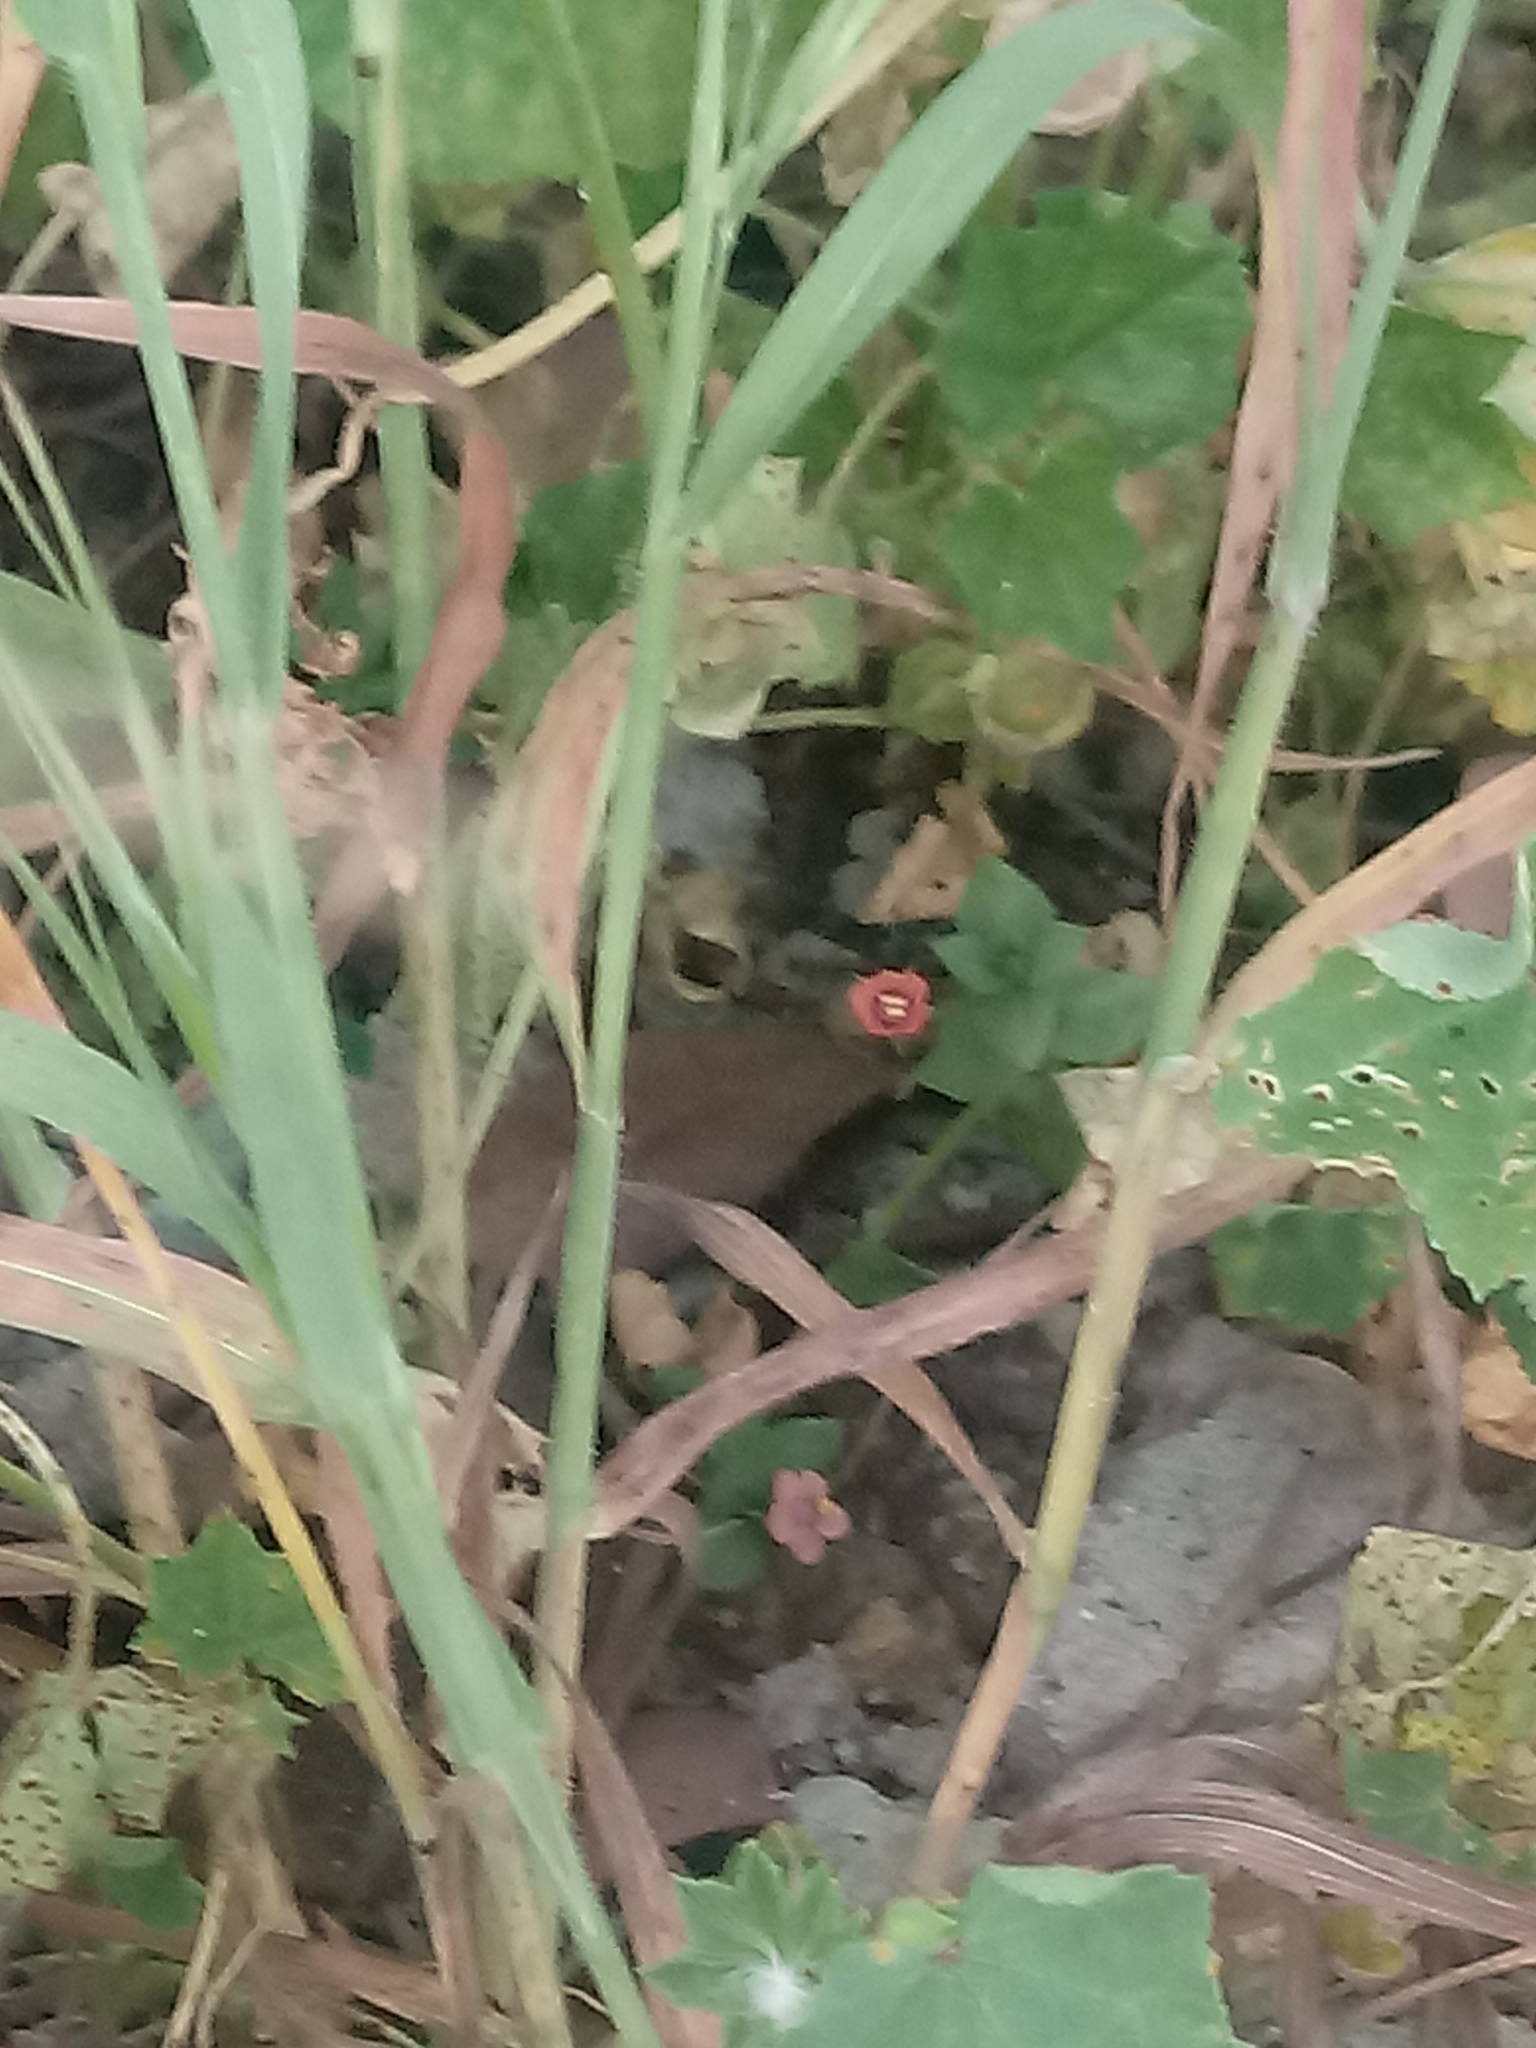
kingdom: Plantae
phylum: Tracheophyta
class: Magnoliopsida
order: Ericales
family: Primulaceae
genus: Lysimachia
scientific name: Lysimachia arvensis
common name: Scarlet pimpernel
